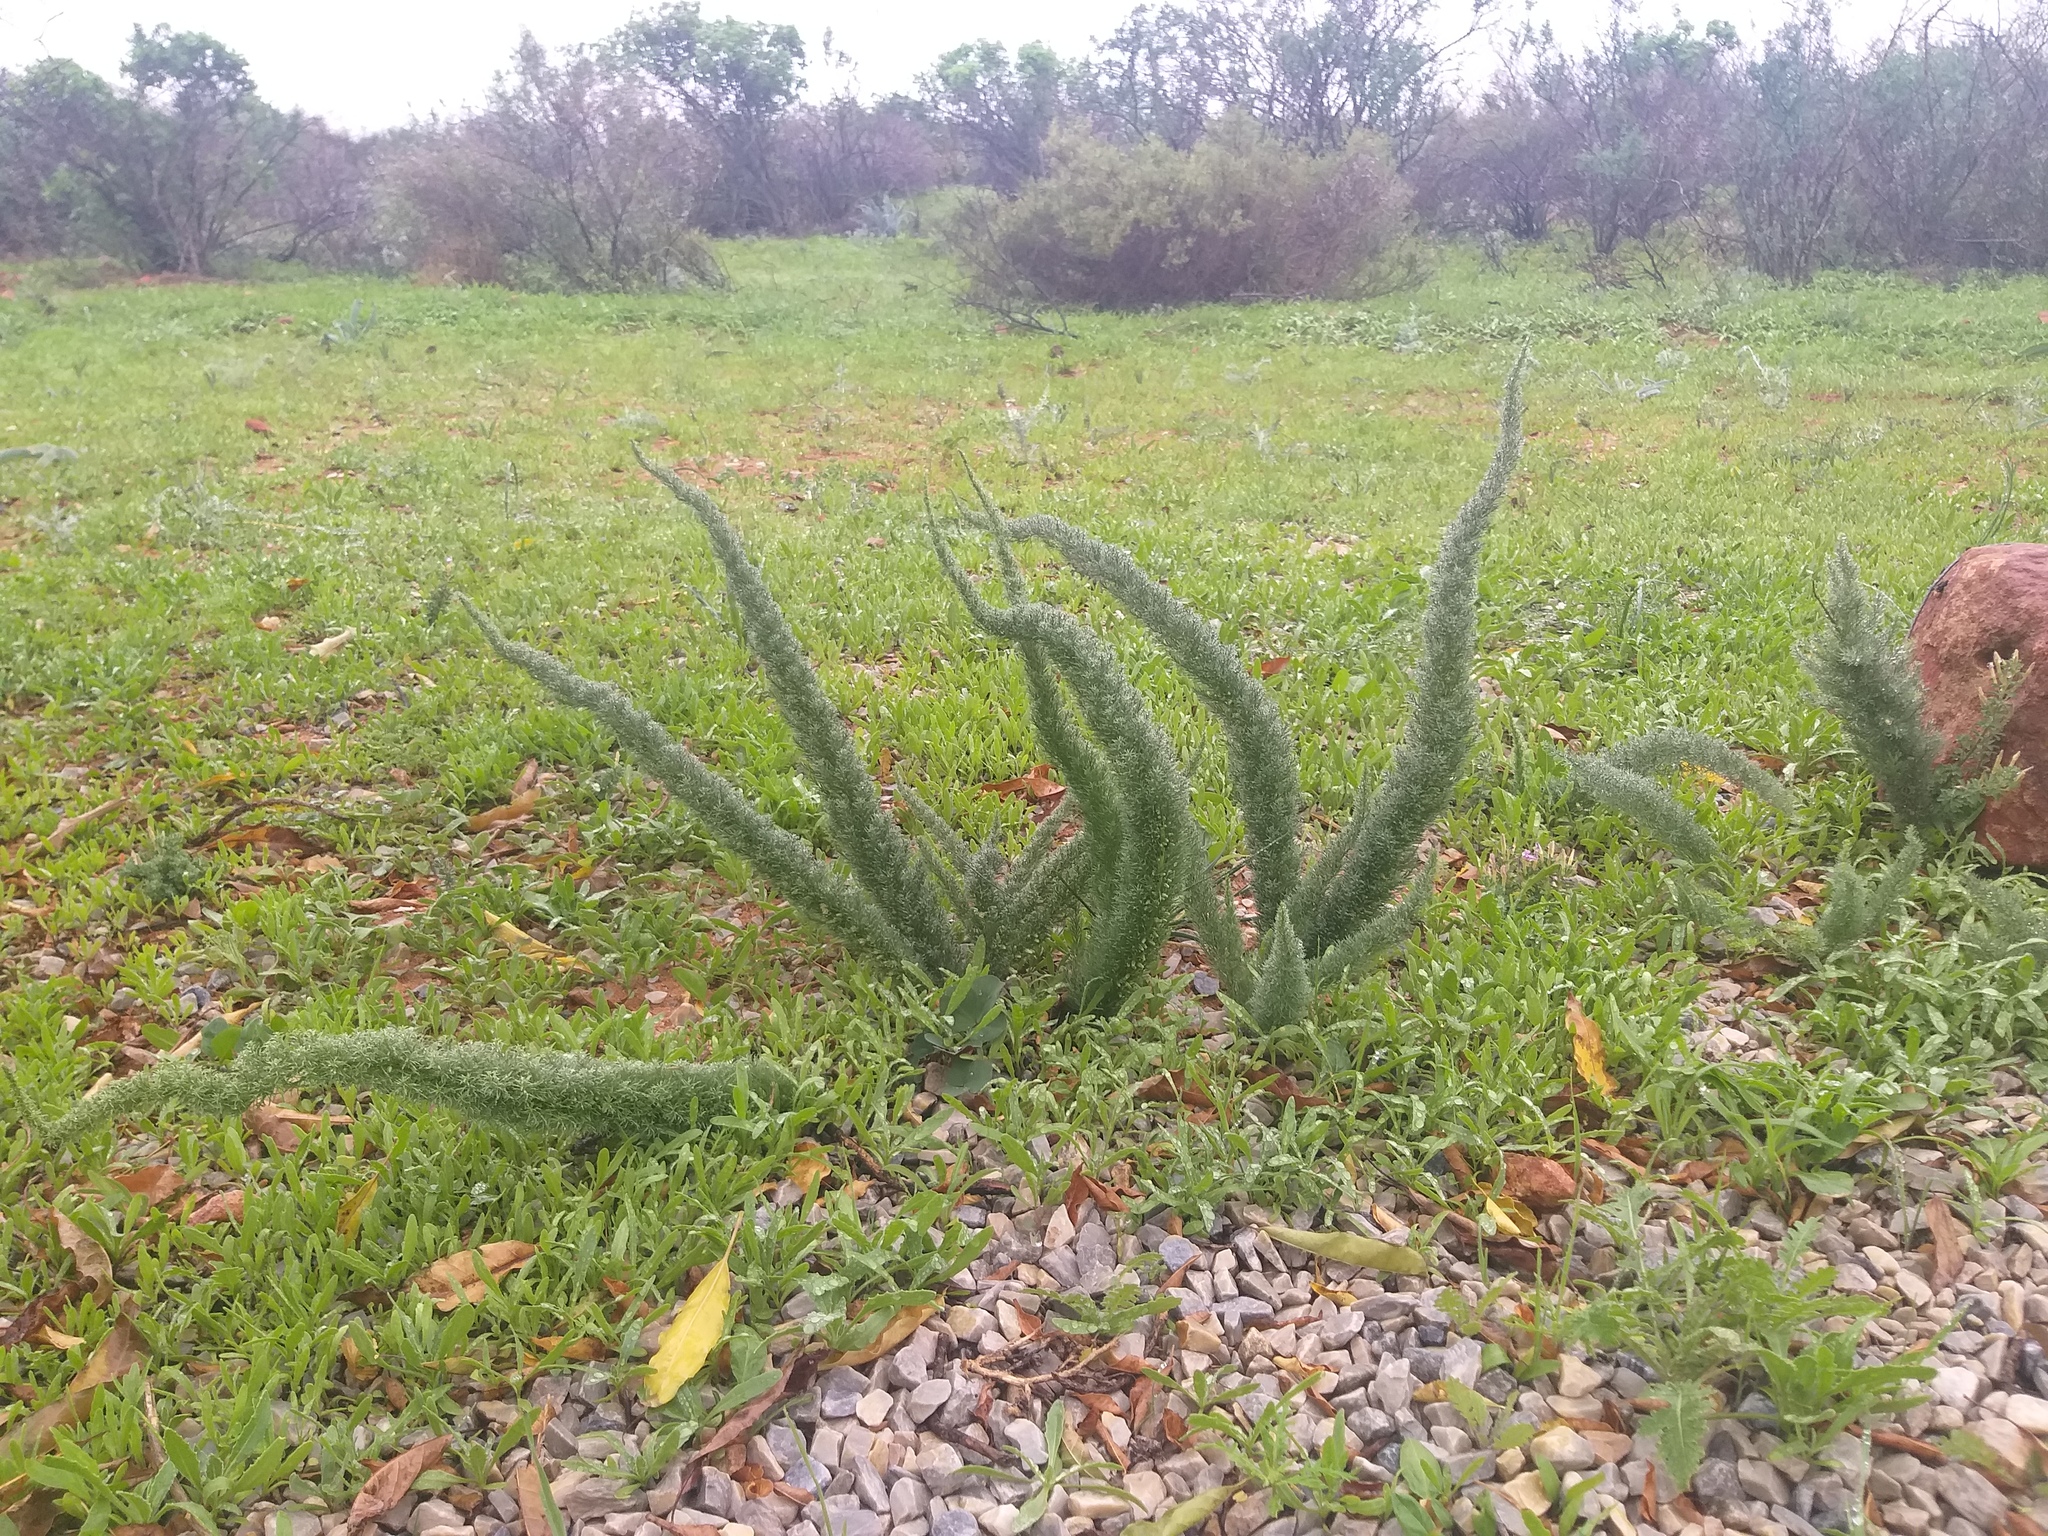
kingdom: Plantae
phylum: Tracheophyta
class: Liliopsida
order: Asparagales
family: Asparagaceae
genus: Asparagus
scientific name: Asparagus juniperoides
